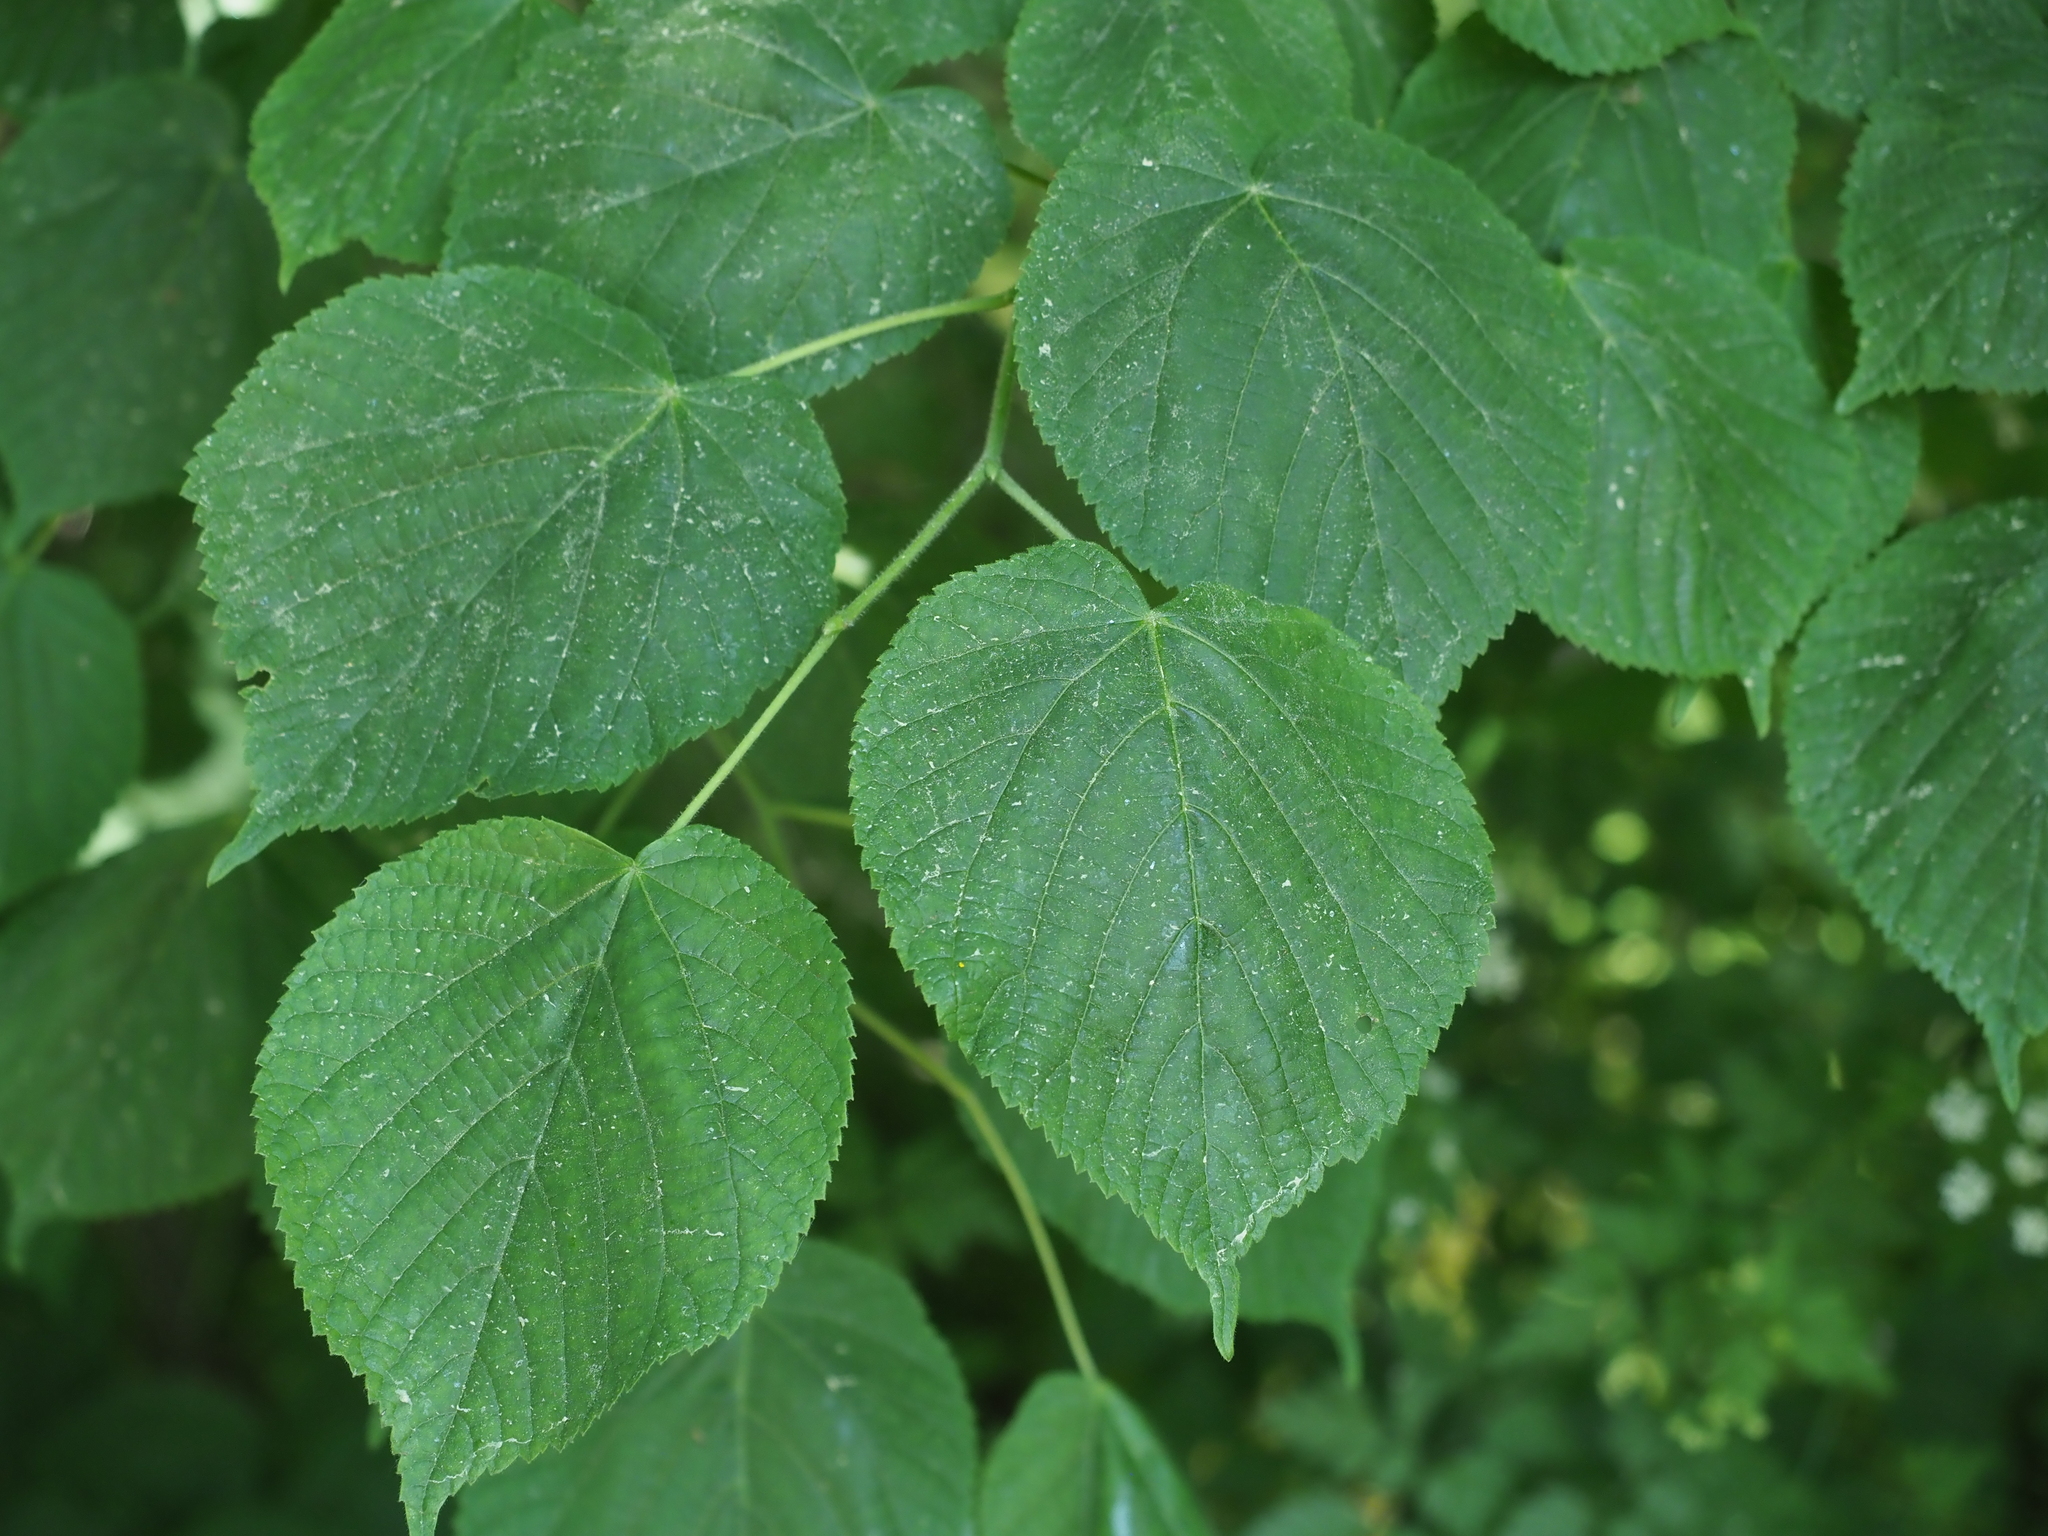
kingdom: Plantae
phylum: Tracheophyta
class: Magnoliopsida
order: Malvales
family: Malvaceae
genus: Tilia
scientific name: Tilia cordata
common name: Small-leaved lime
